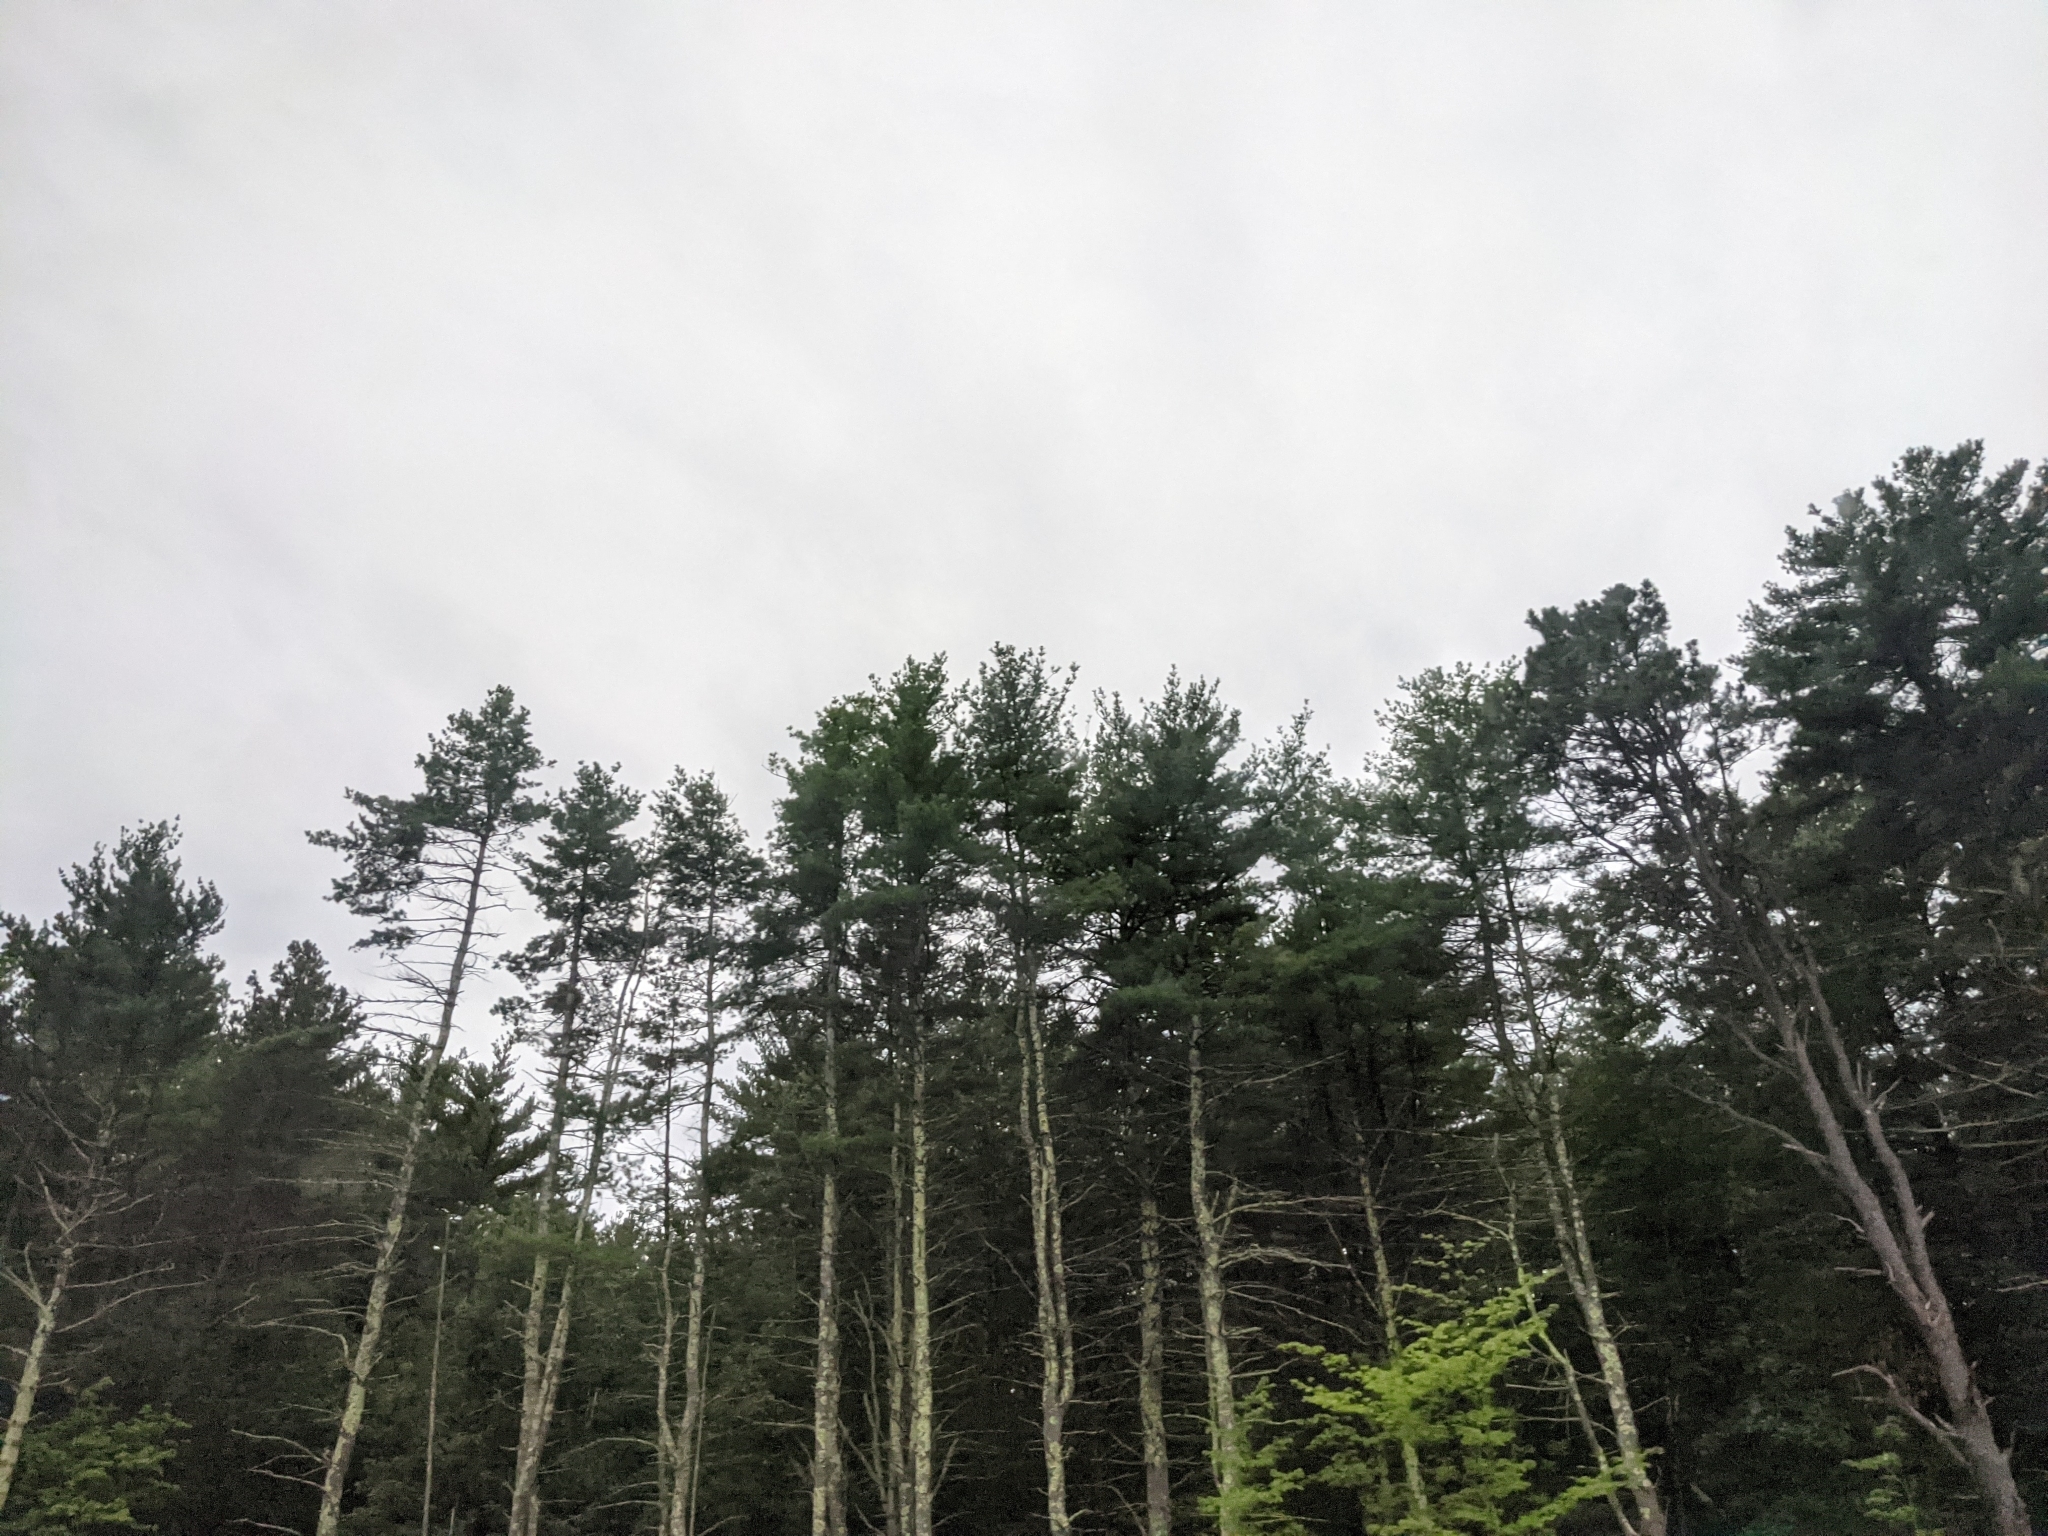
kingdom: Plantae
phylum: Tracheophyta
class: Pinopsida
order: Pinales
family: Pinaceae
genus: Pinus
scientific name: Pinus strobus
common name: Weymouth pine
